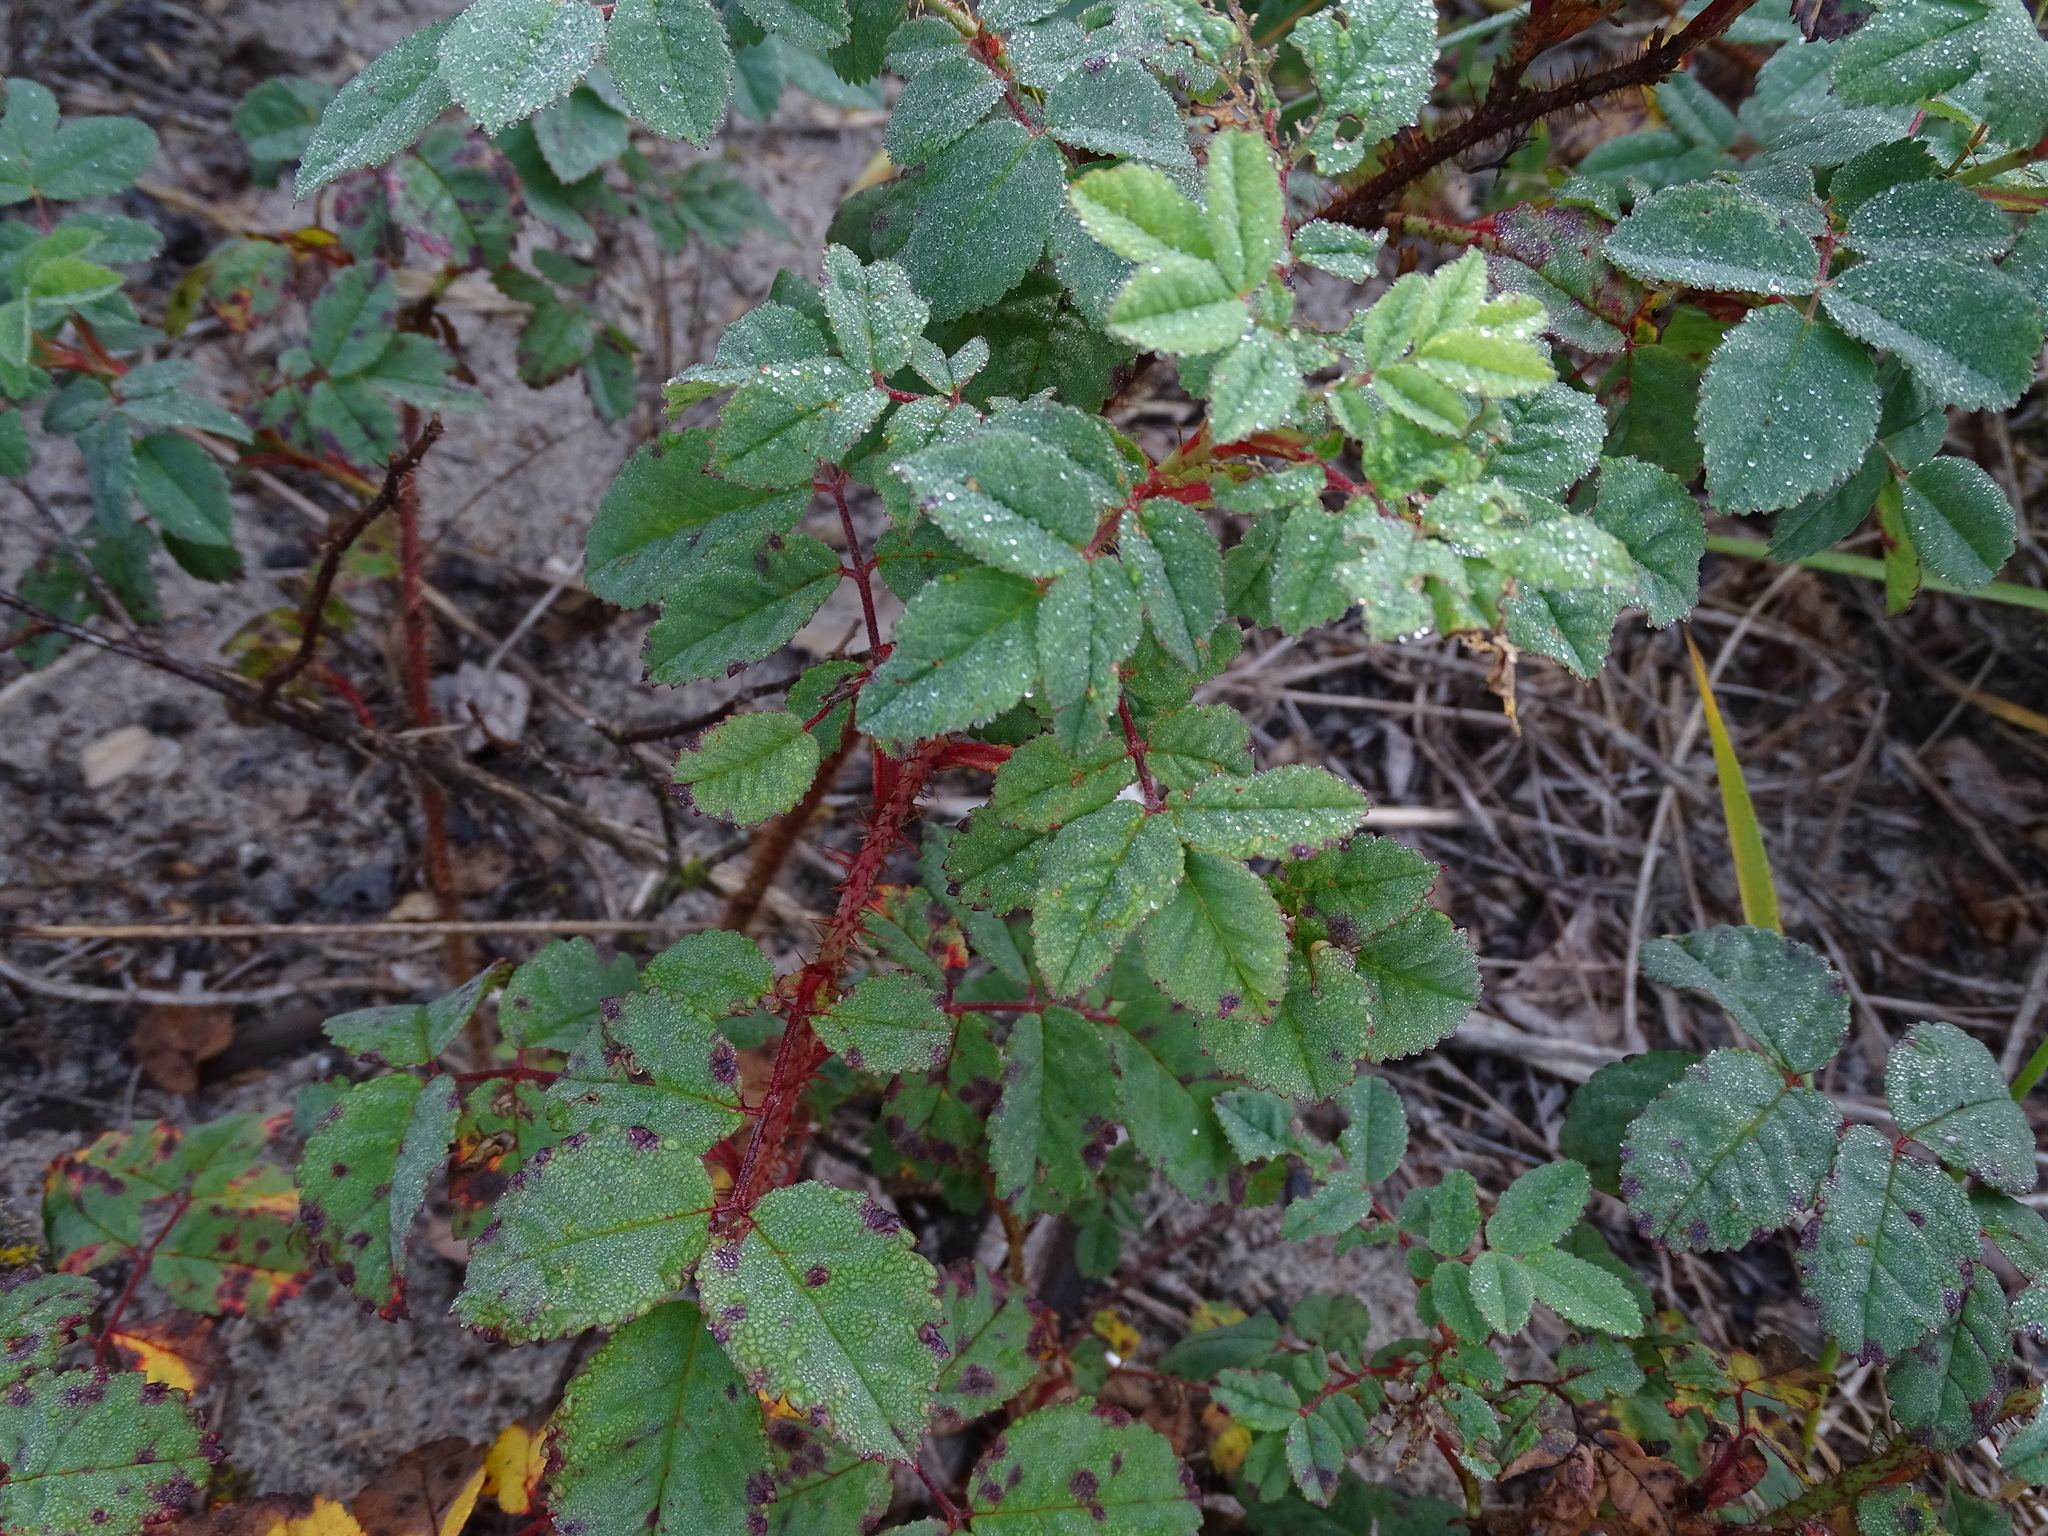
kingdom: Plantae
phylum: Tracheophyta
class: Magnoliopsida
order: Rosales
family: Rosaceae
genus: Rosa
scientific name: Rosa acicularis
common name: Prickly rose
